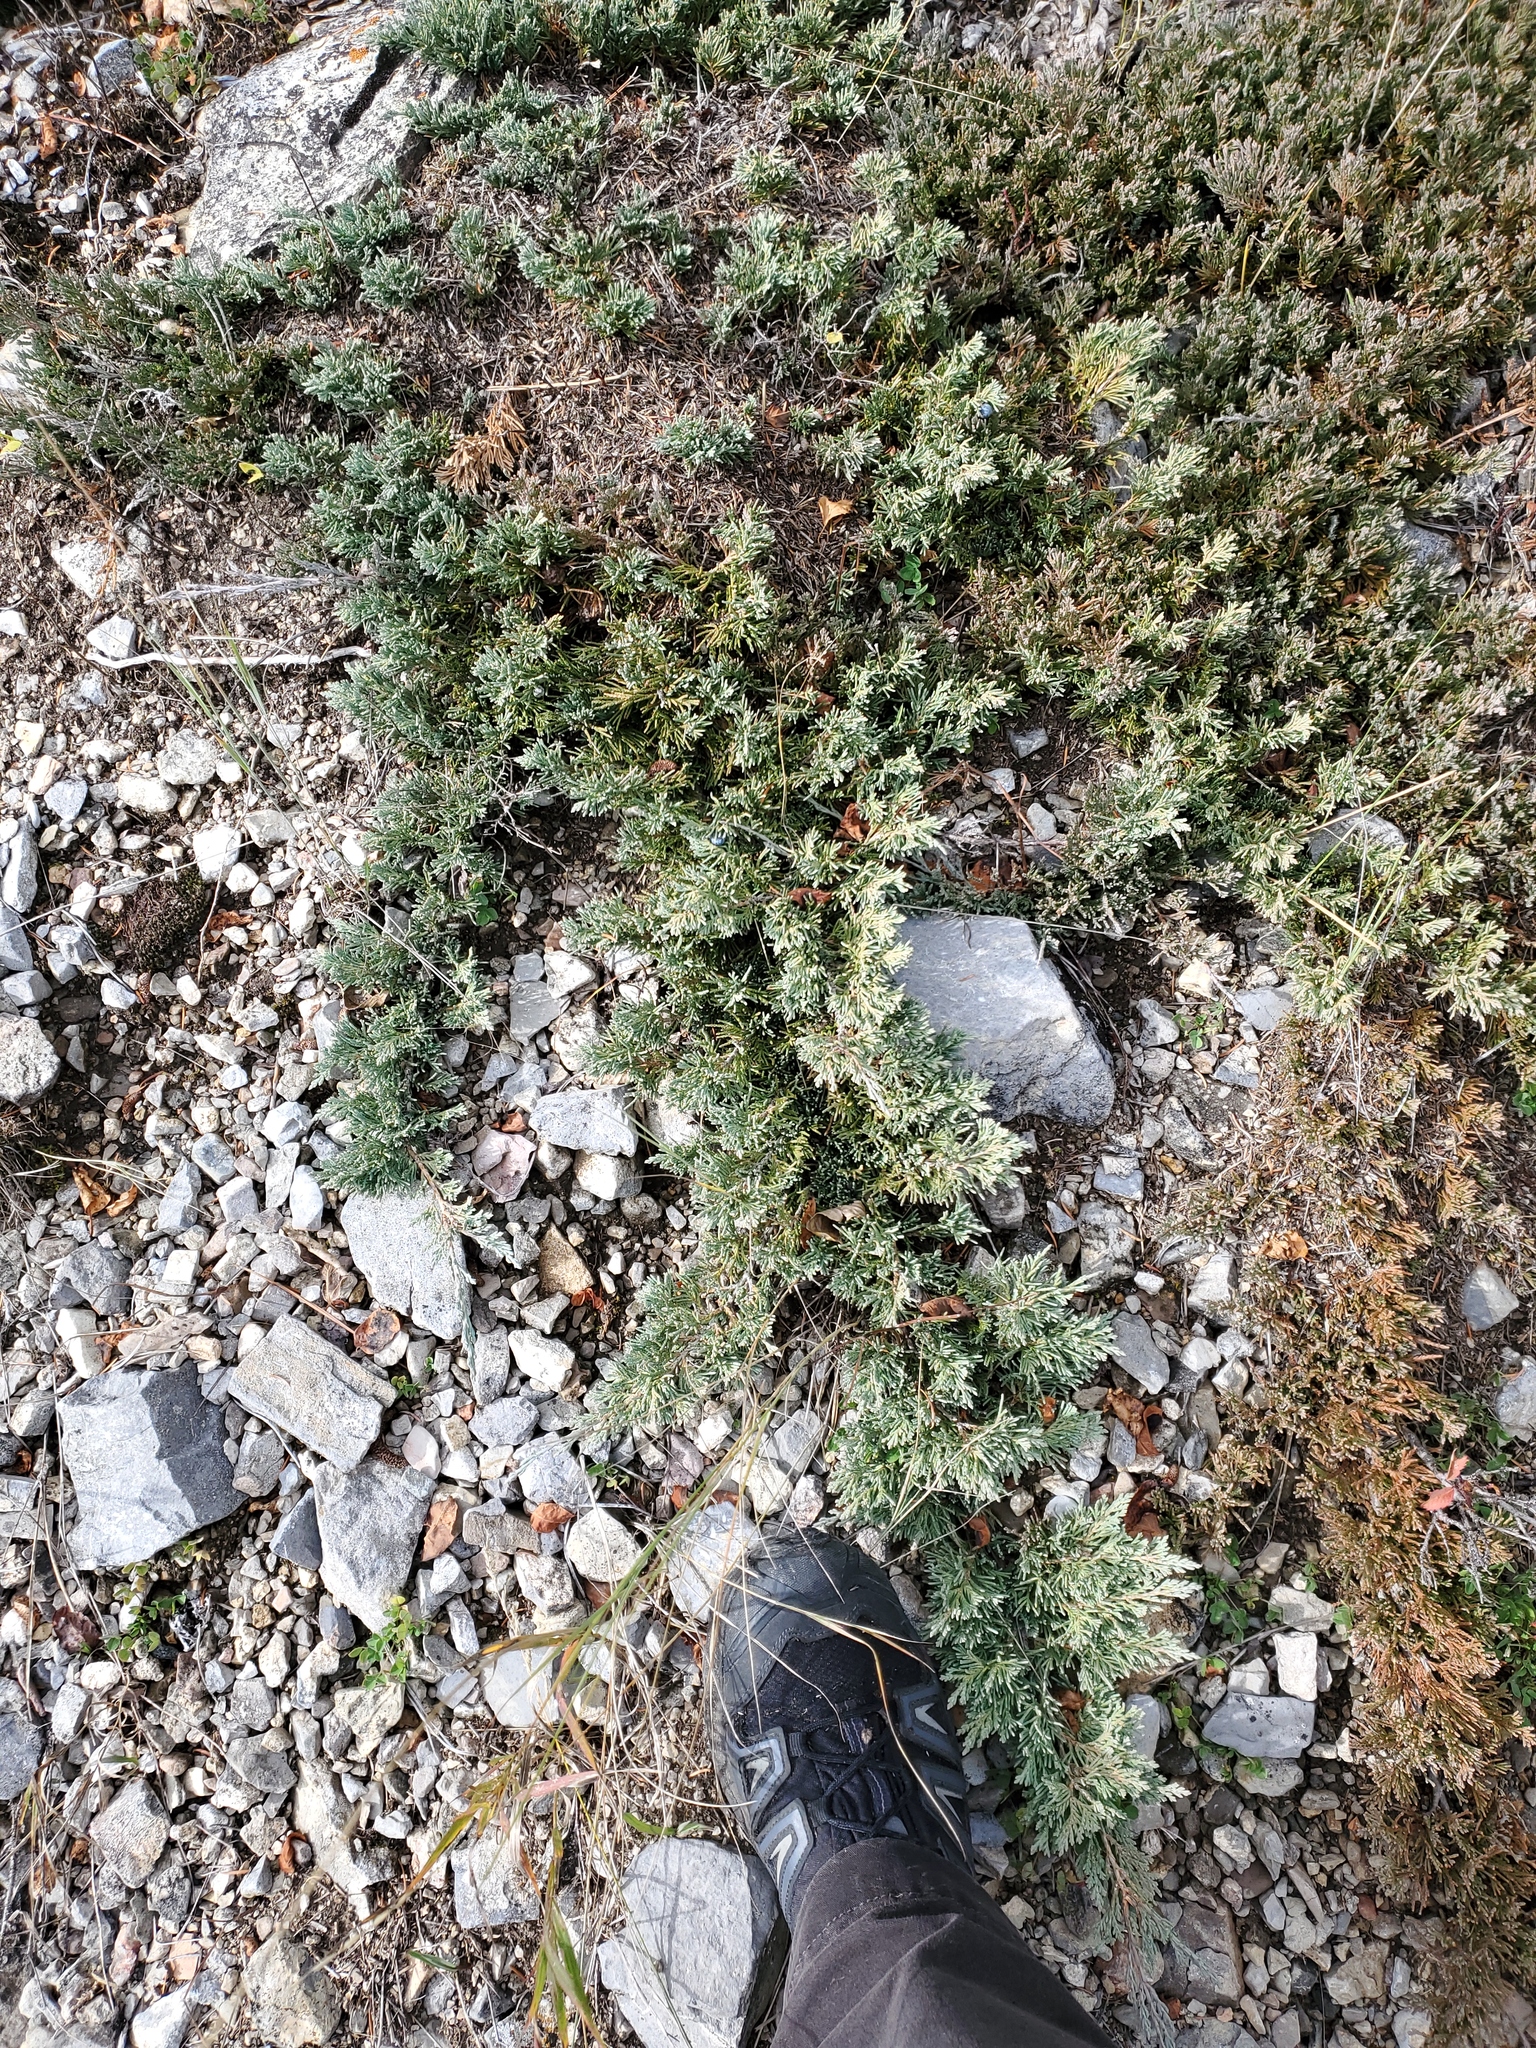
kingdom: Plantae
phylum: Tracheophyta
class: Pinopsida
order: Pinales
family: Cupressaceae
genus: Juniperus
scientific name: Juniperus horizontalis
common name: Creeping juniper
